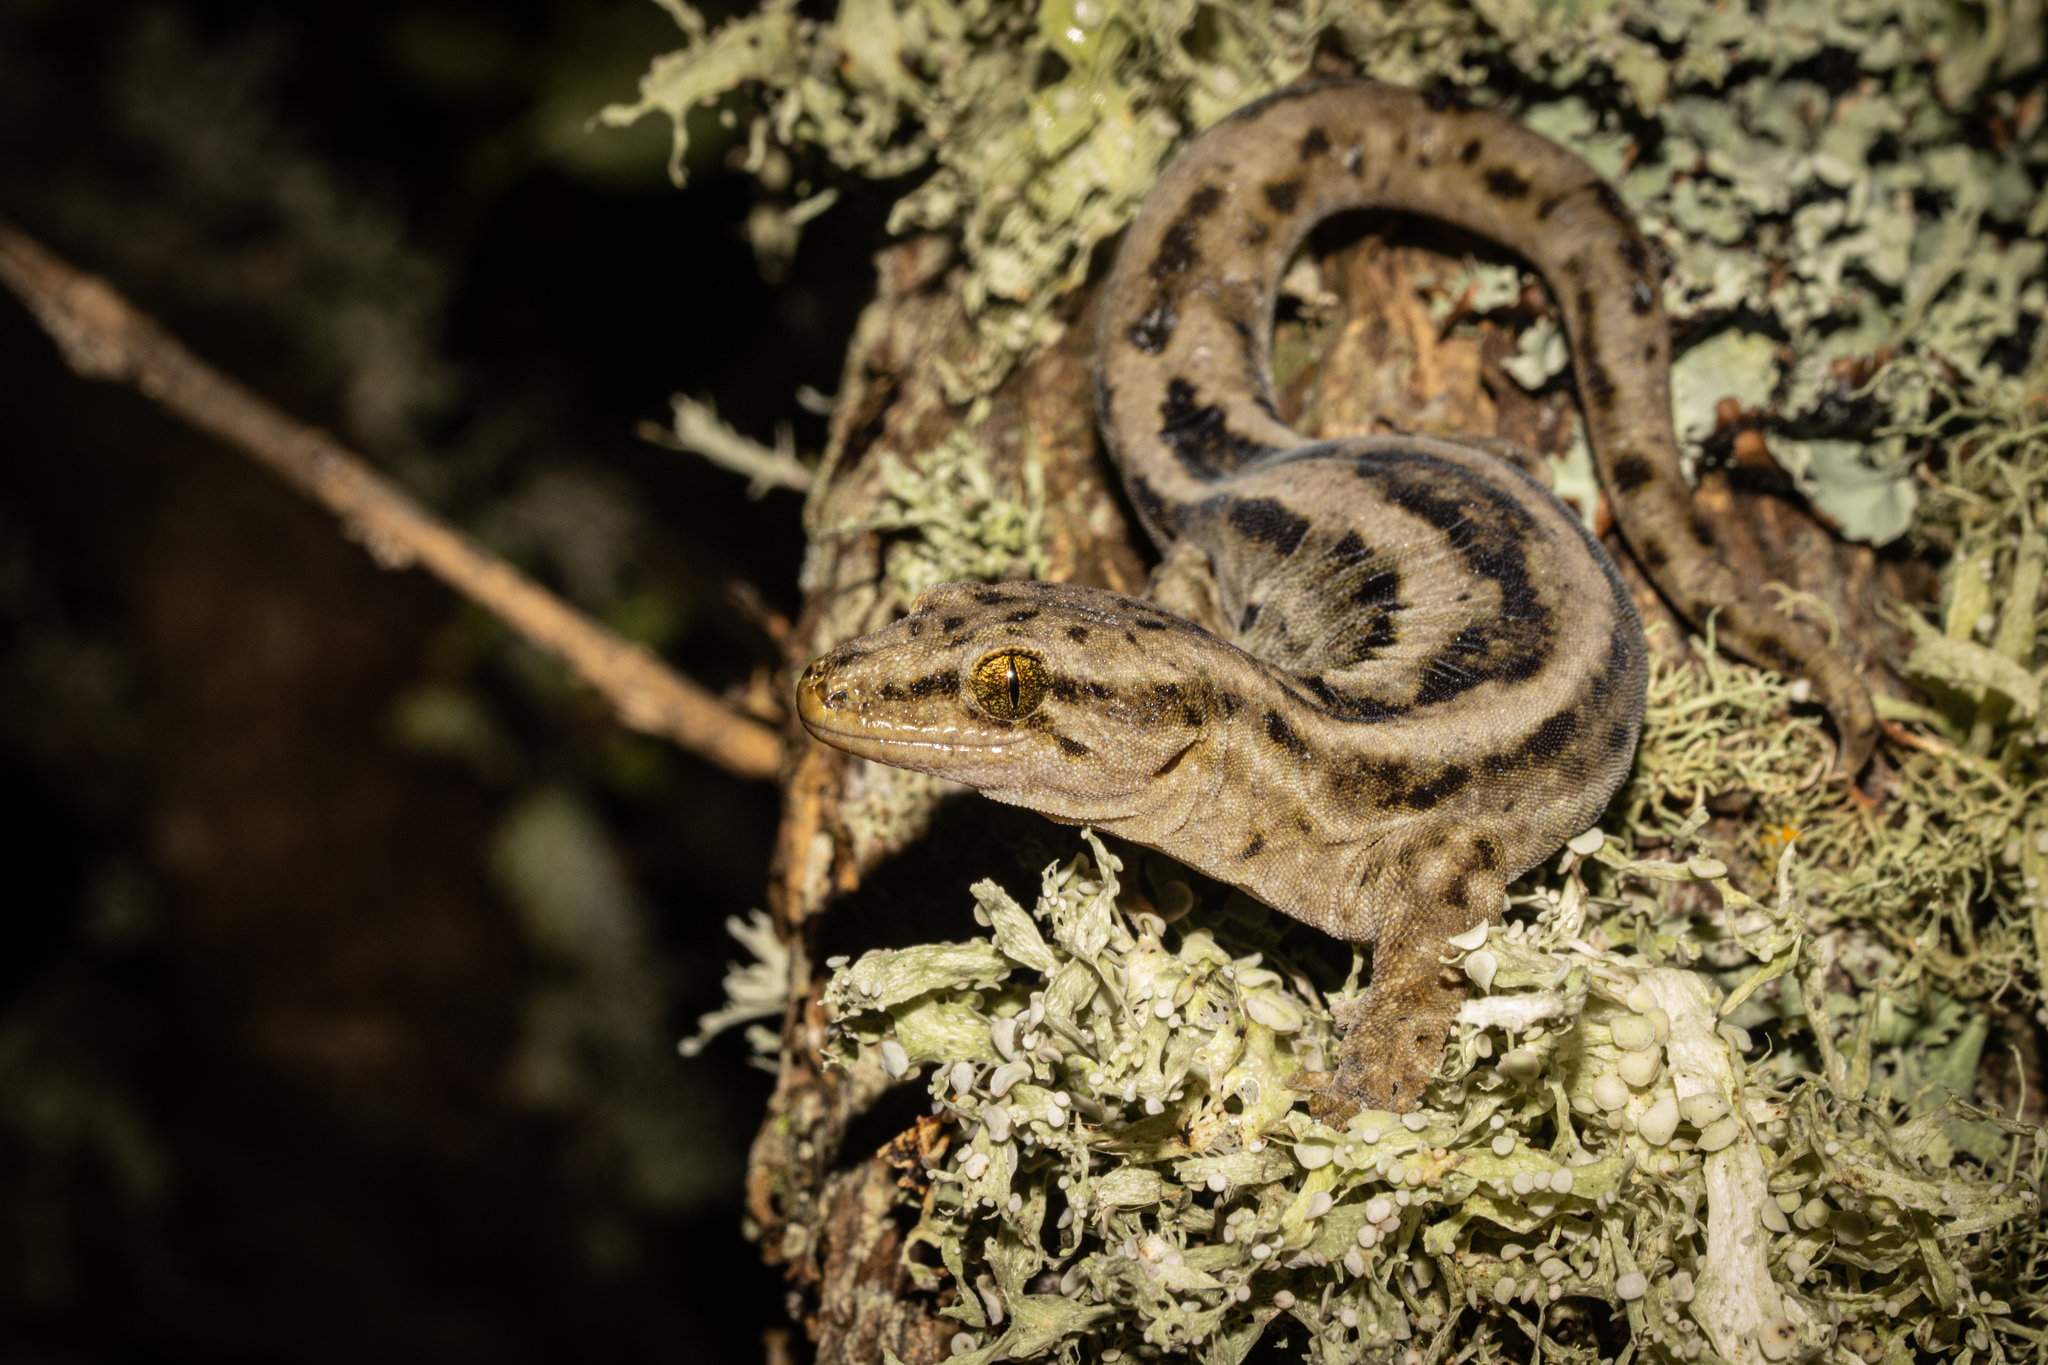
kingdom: Animalia
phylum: Chordata
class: Squamata
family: Diplodactylidae
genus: Woodworthia
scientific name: Woodworthia maculata
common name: Raukawa gecko
